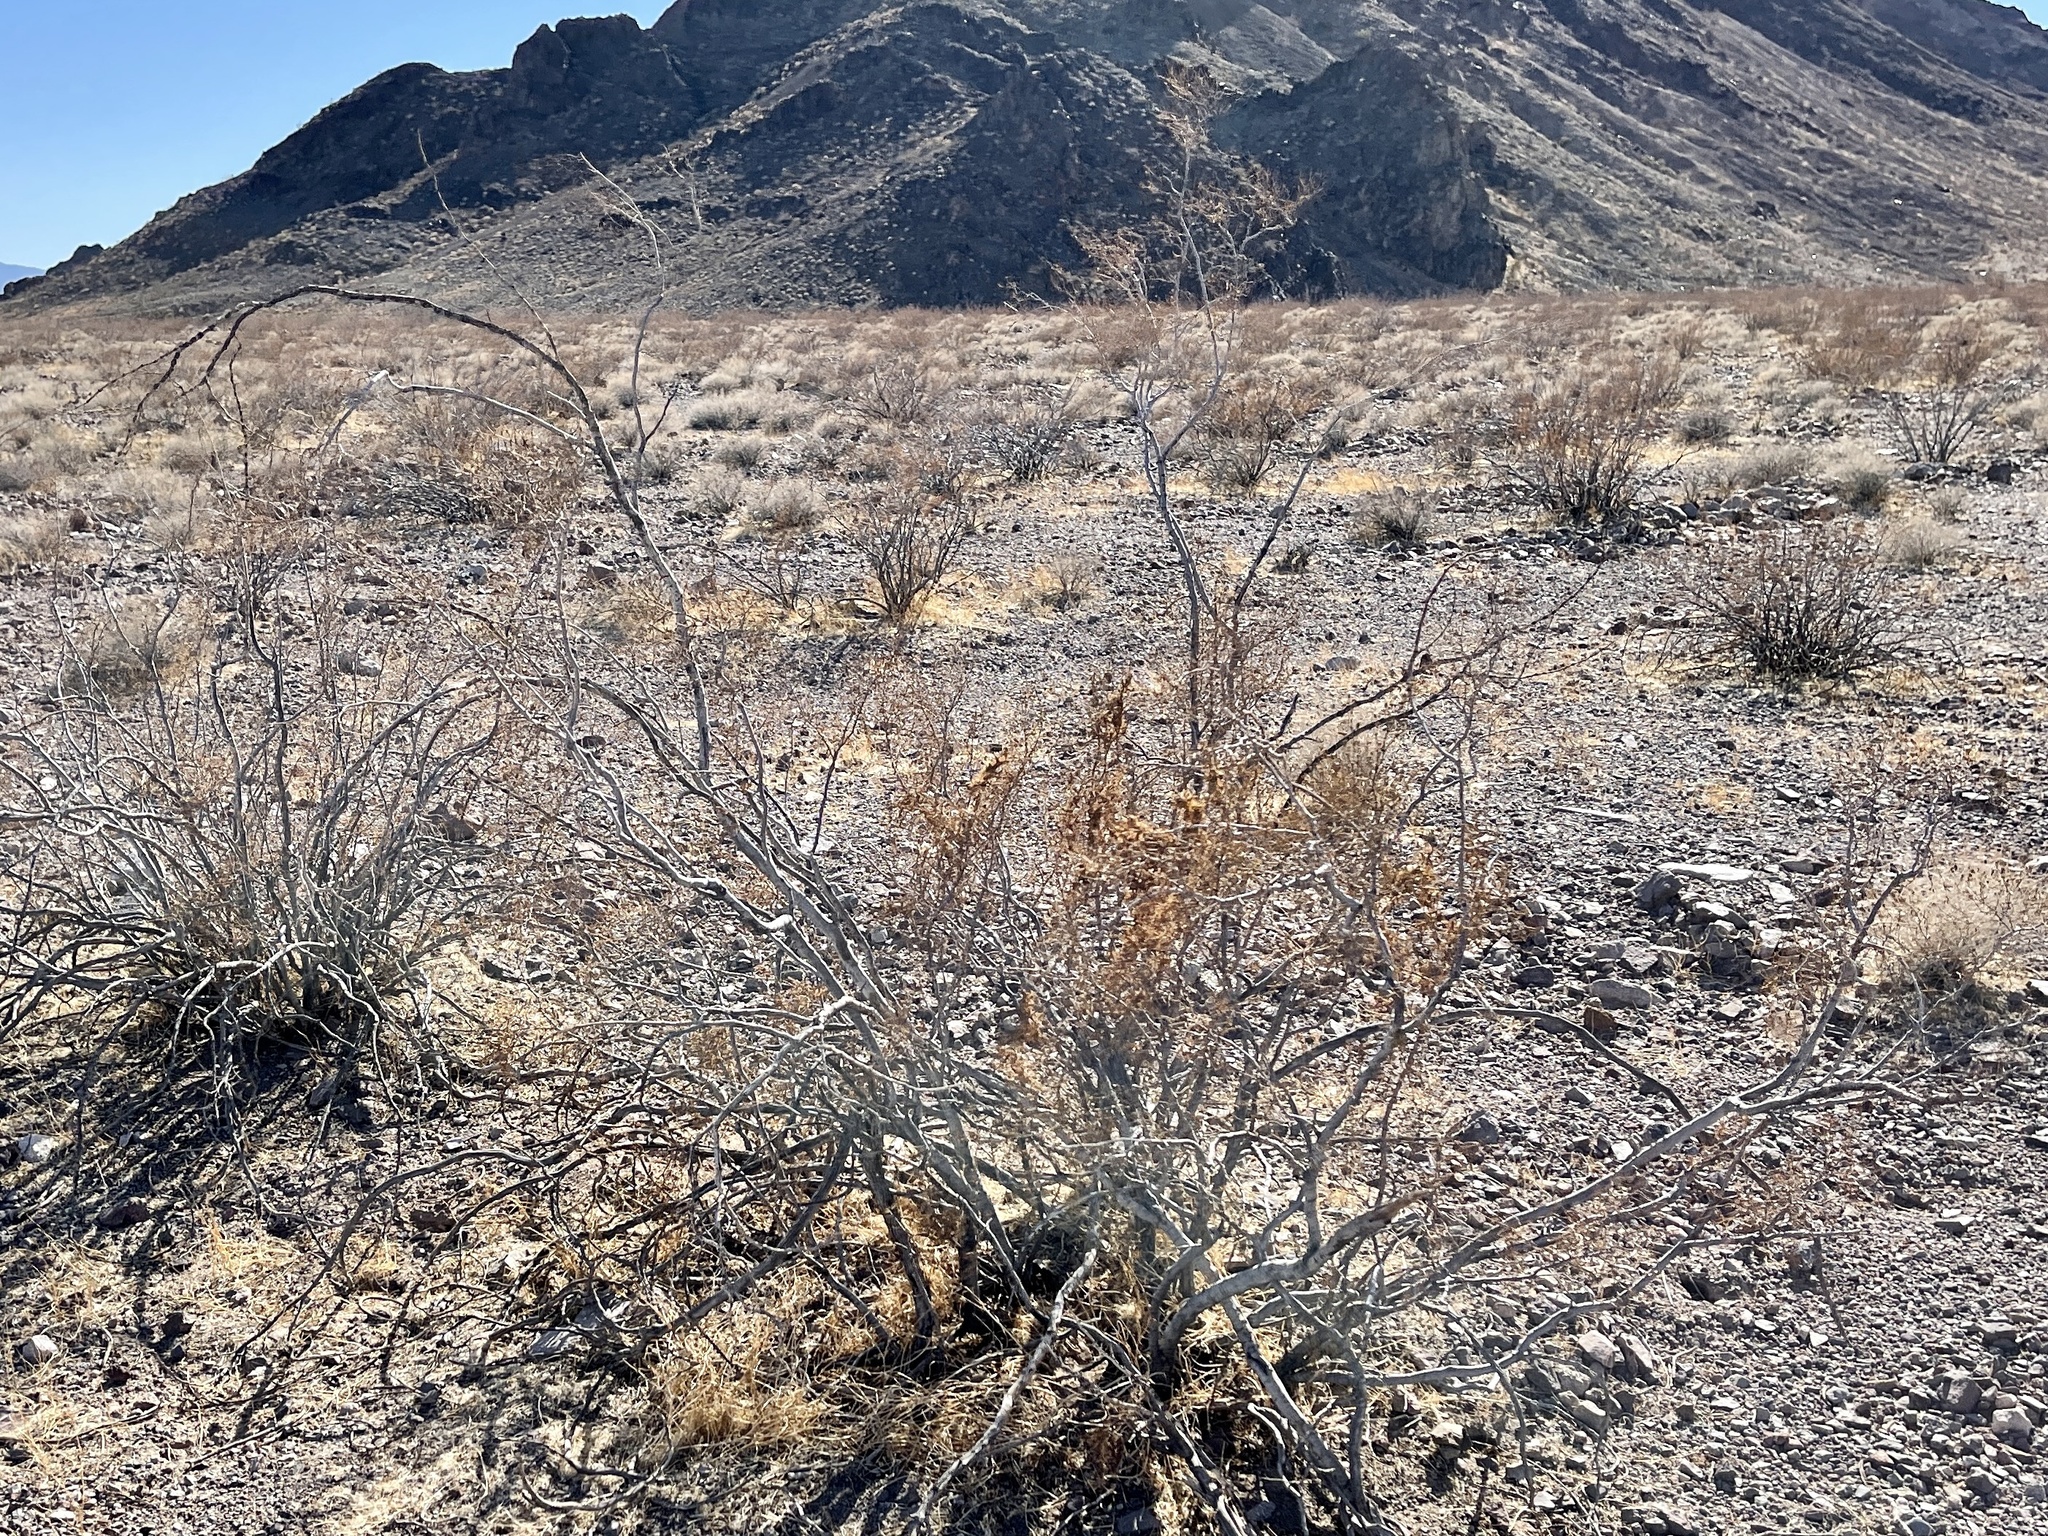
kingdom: Plantae
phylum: Tracheophyta
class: Magnoliopsida
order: Zygophyllales
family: Zygophyllaceae
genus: Larrea
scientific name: Larrea tridentata
